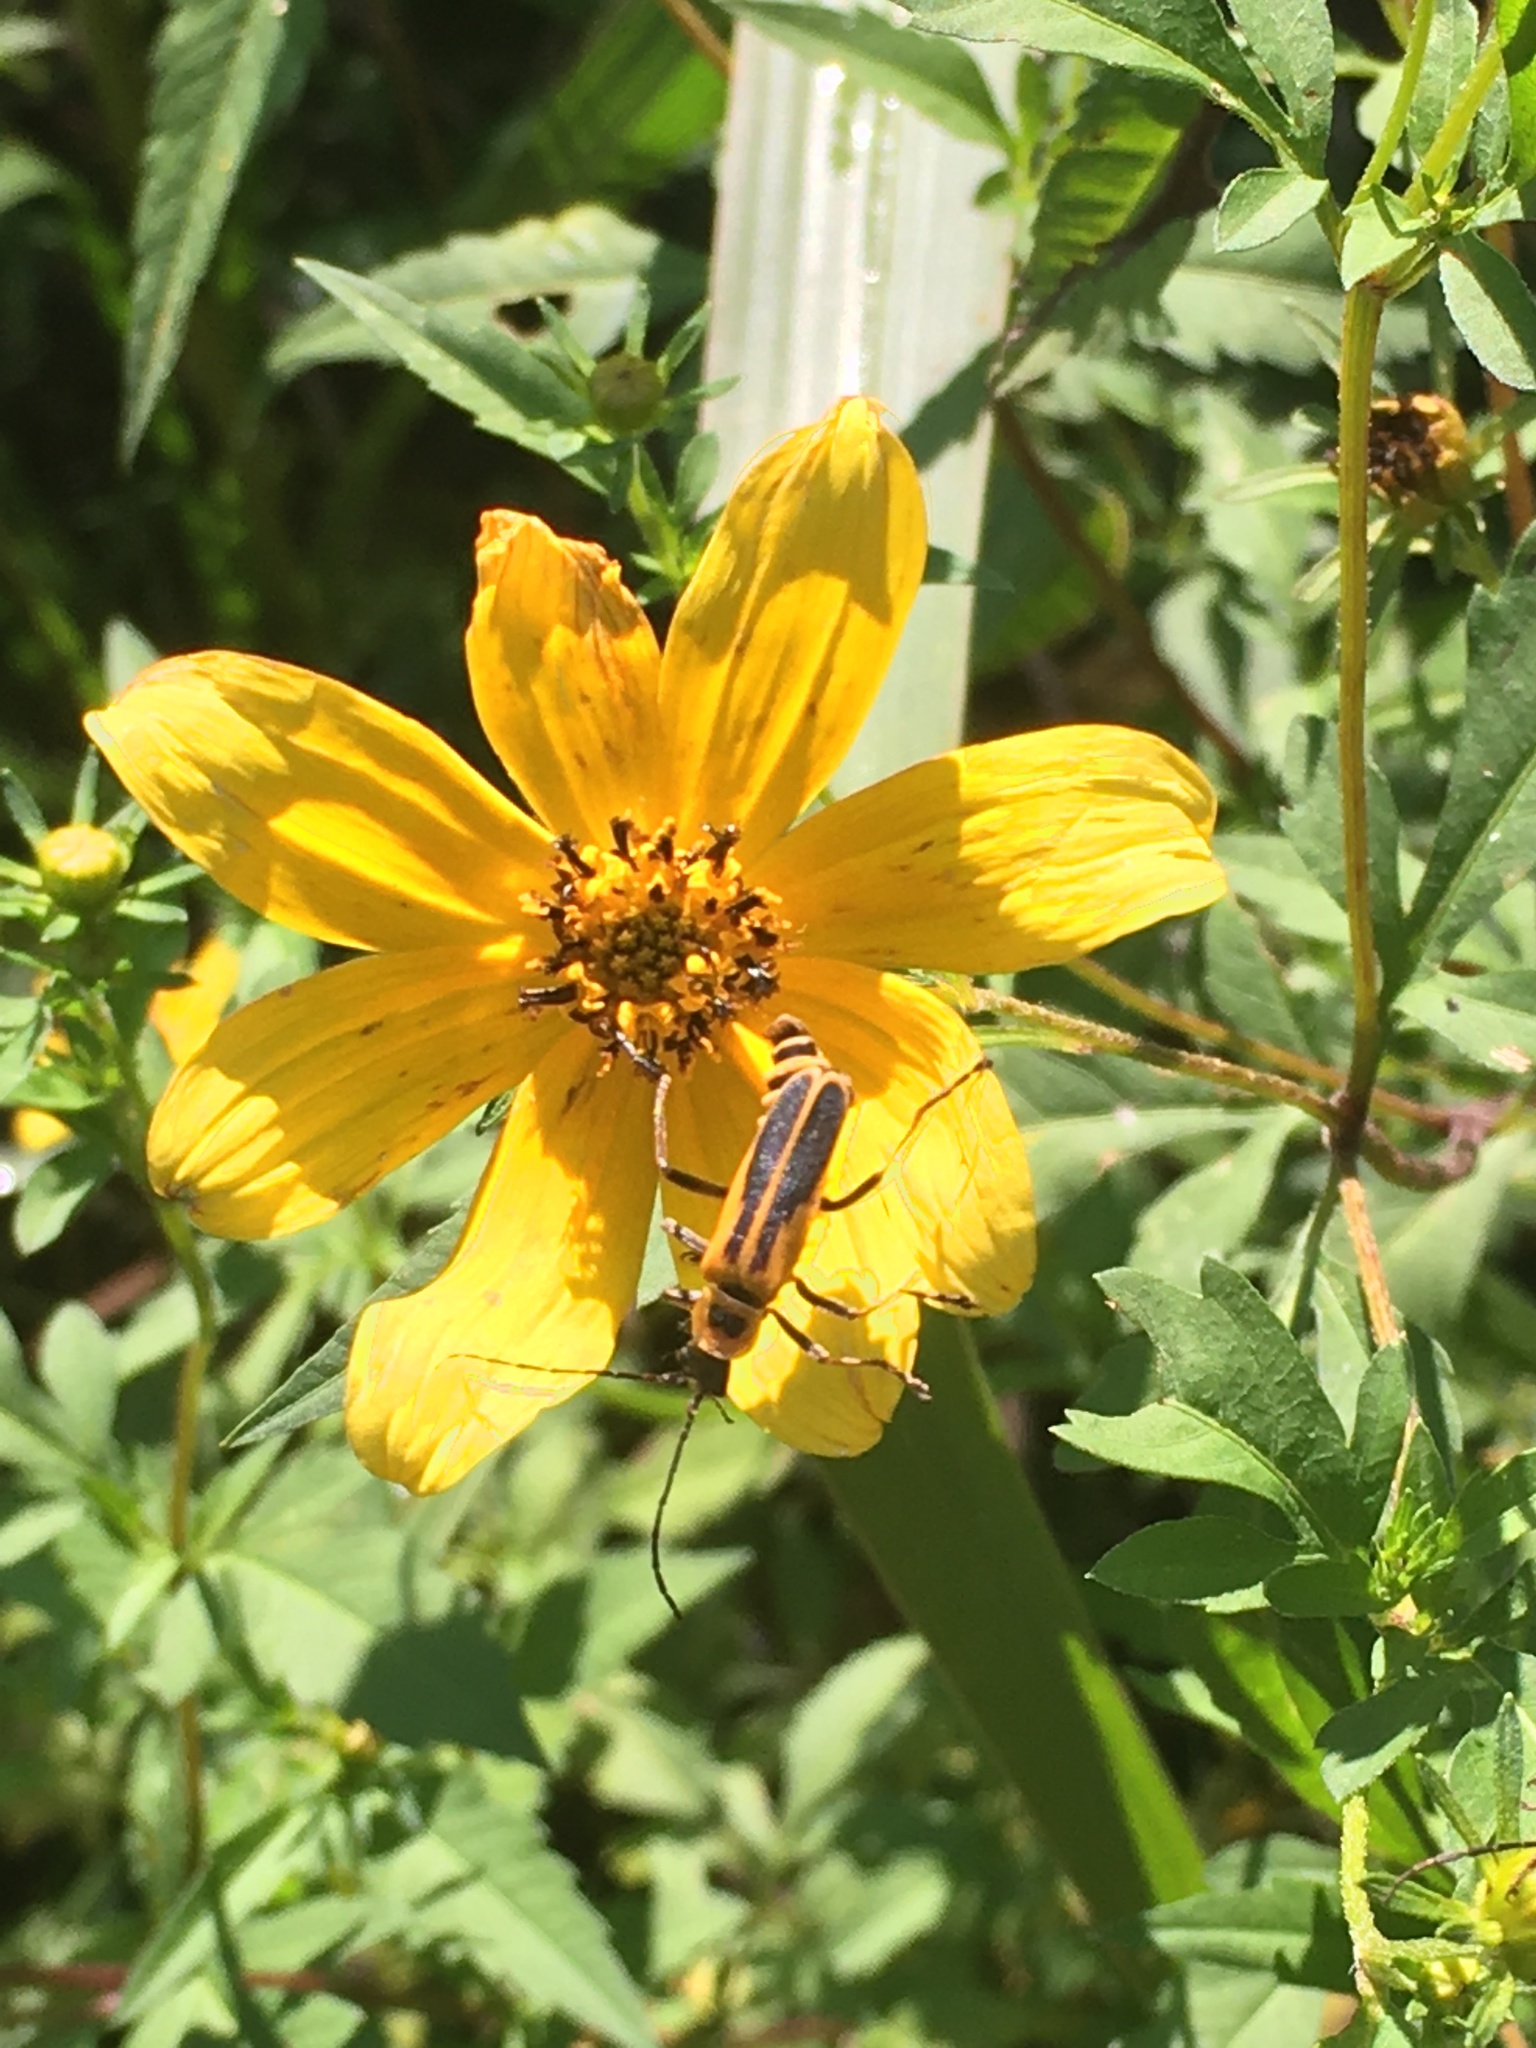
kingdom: Animalia
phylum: Arthropoda
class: Insecta
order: Coleoptera
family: Cantharidae
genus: Chauliognathus
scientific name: Chauliognathus pensylvanicus
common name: Goldenrod soldier beetle
